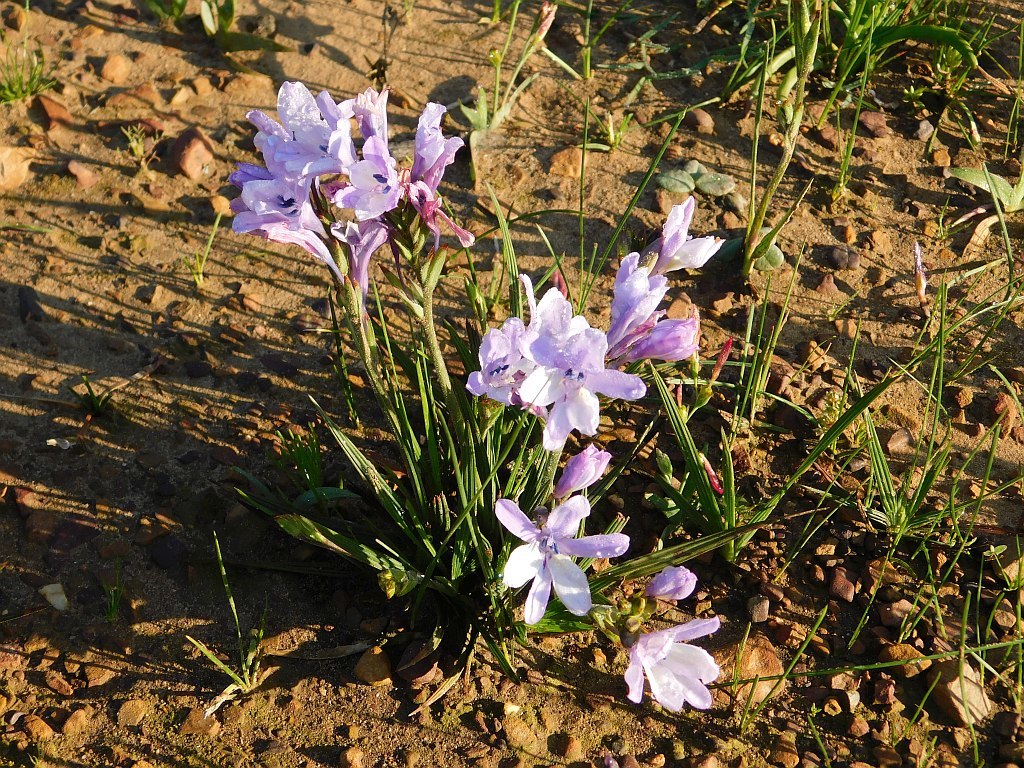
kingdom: Plantae
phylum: Tracheophyta
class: Liliopsida
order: Asparagales
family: Iridaceae
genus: Babiana
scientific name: Babiana nervosa
